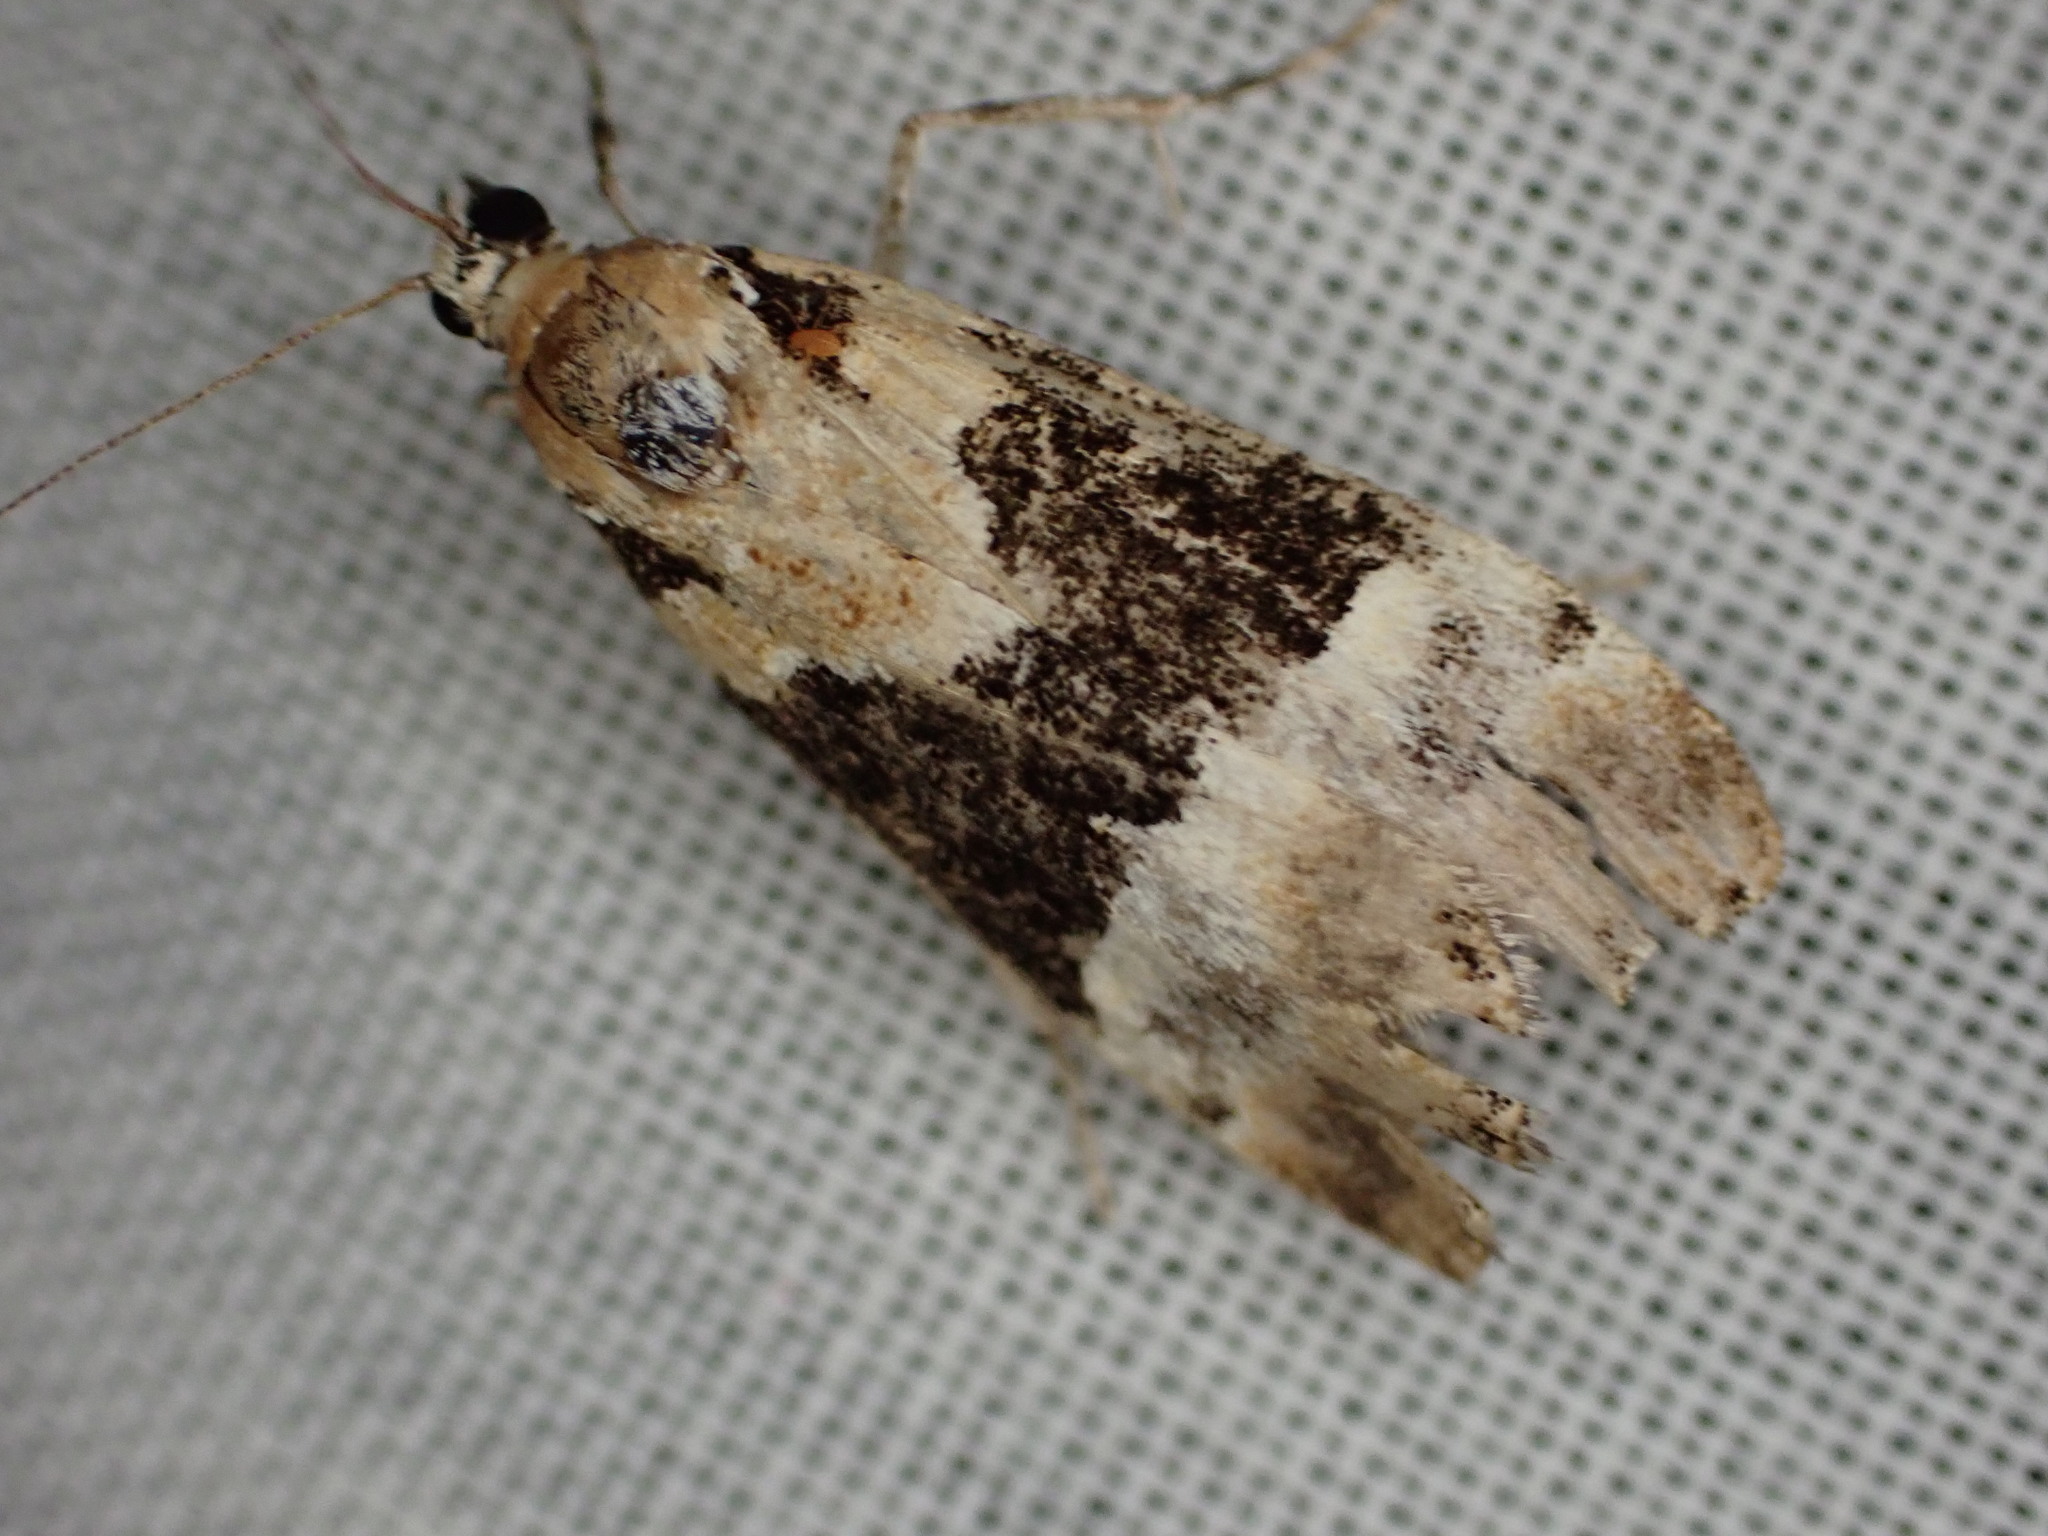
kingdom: Animalia
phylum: Arthropoda
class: Insecta
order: Lepidoptera
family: Crambidae
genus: Eudonia
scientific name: Eudonia aspidota
